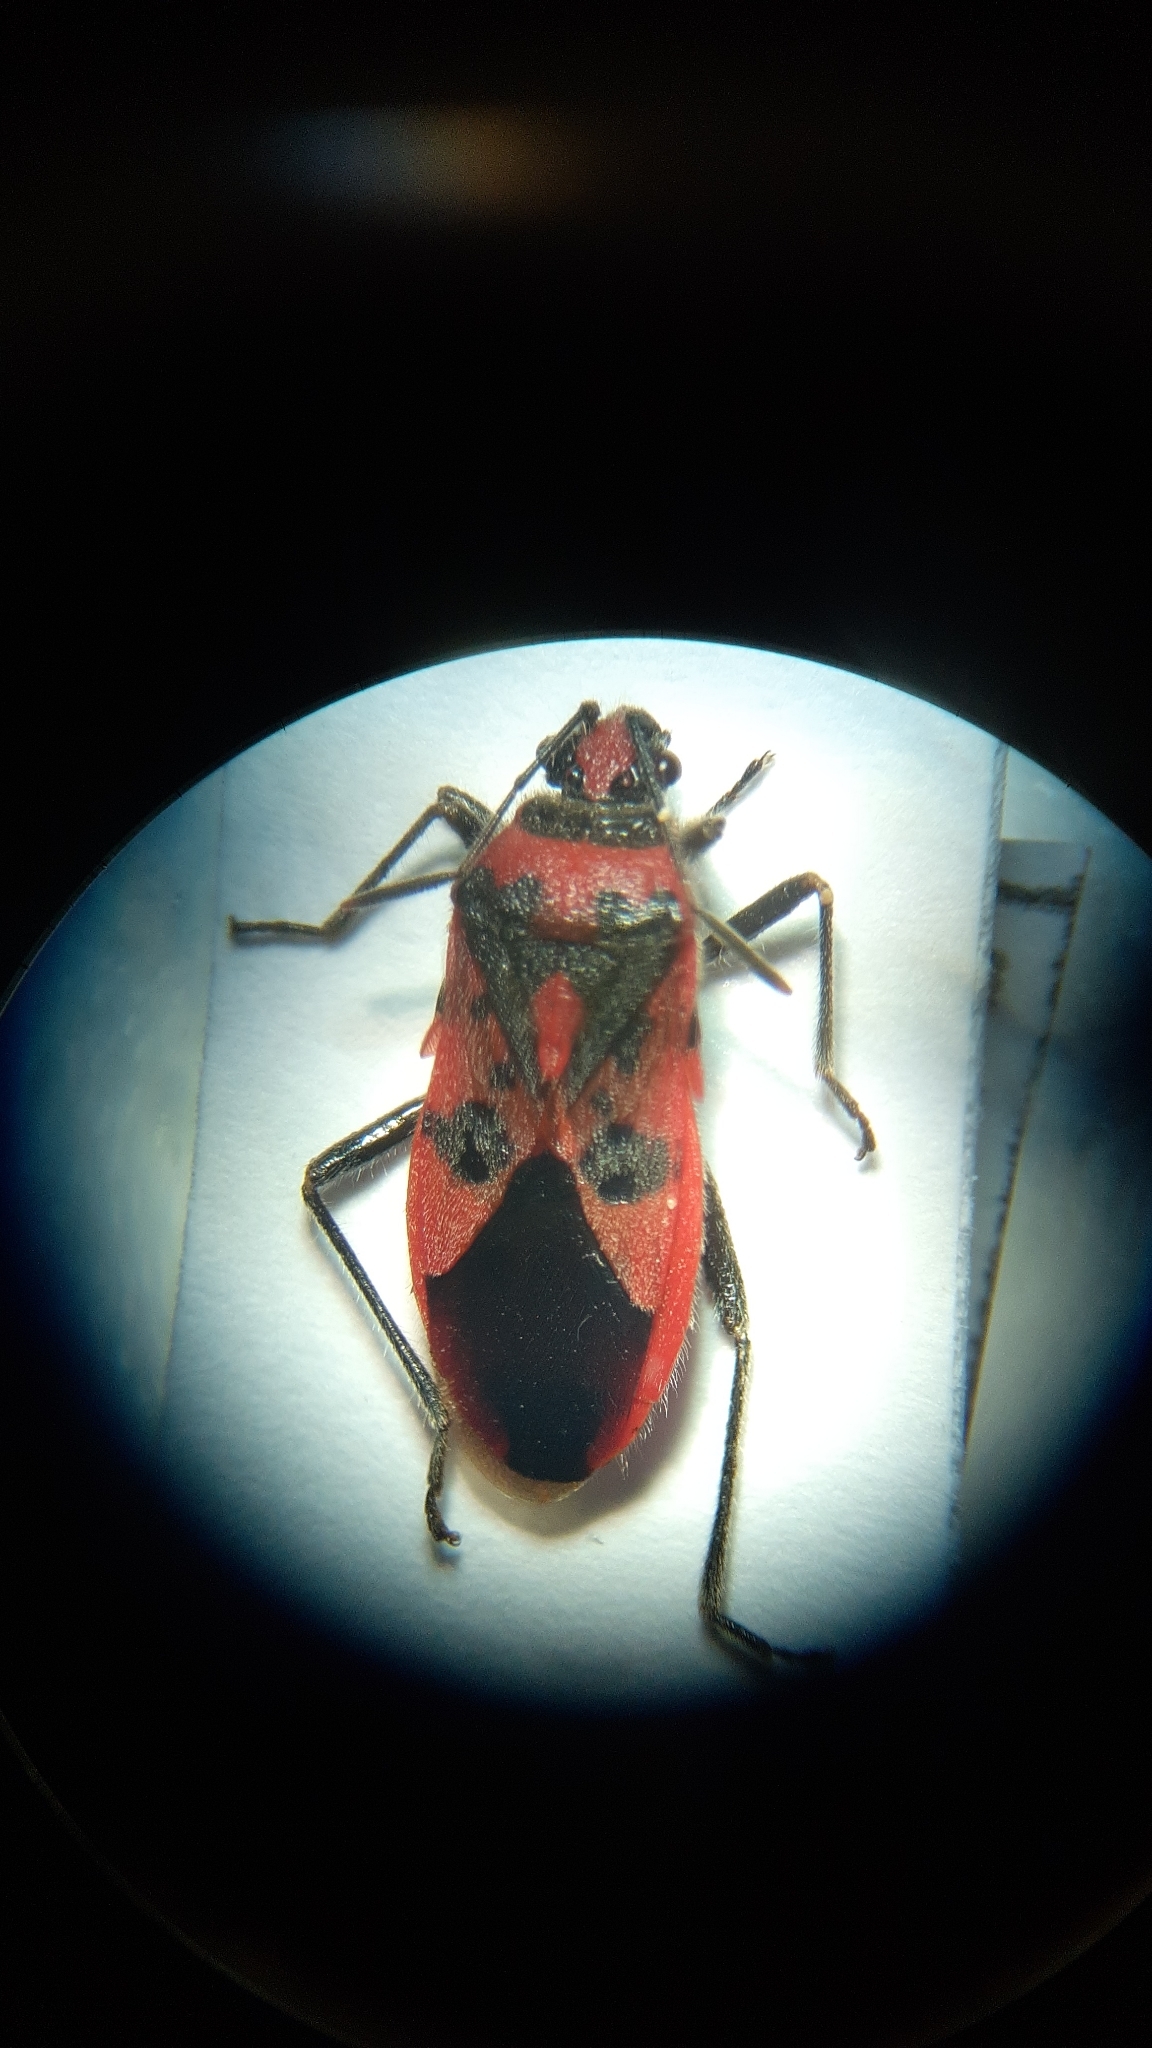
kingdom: Animalia
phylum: Arthropoda
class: Insecta
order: Hemiptera
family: Rhopalidae
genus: Corizus
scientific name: Corizus hyoscyami
